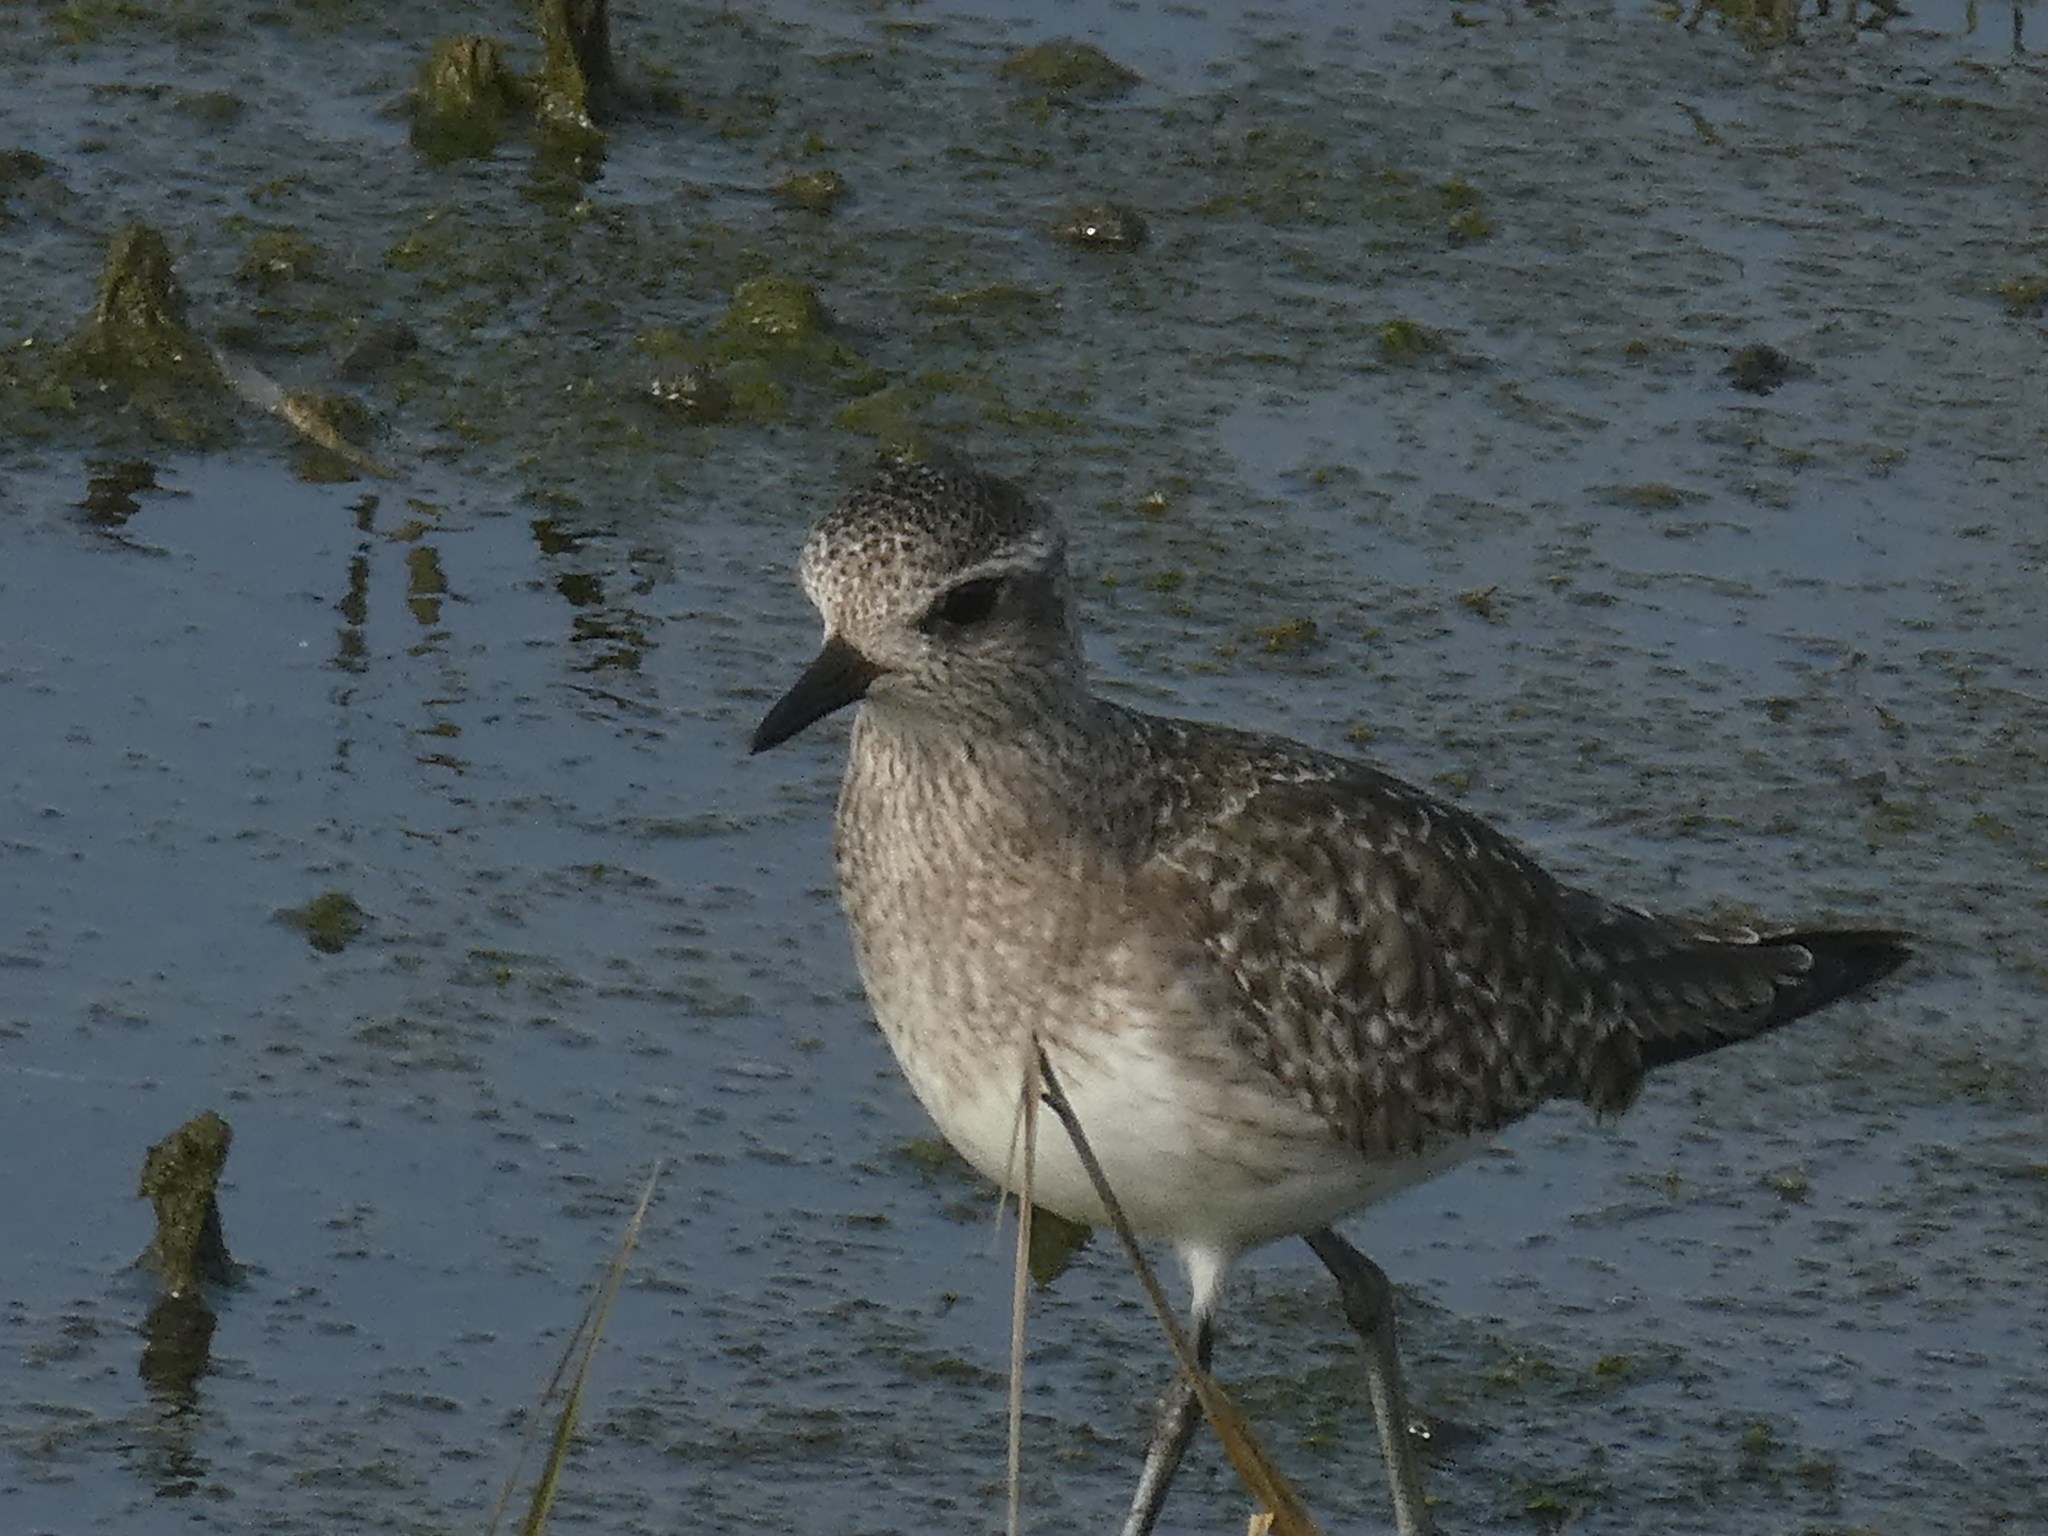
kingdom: Animalia
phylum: Chordata
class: Aves
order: Charadriiformes
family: Charadriidae
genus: Pluvialis
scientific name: Pluvialis squatarola
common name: Grey plover
